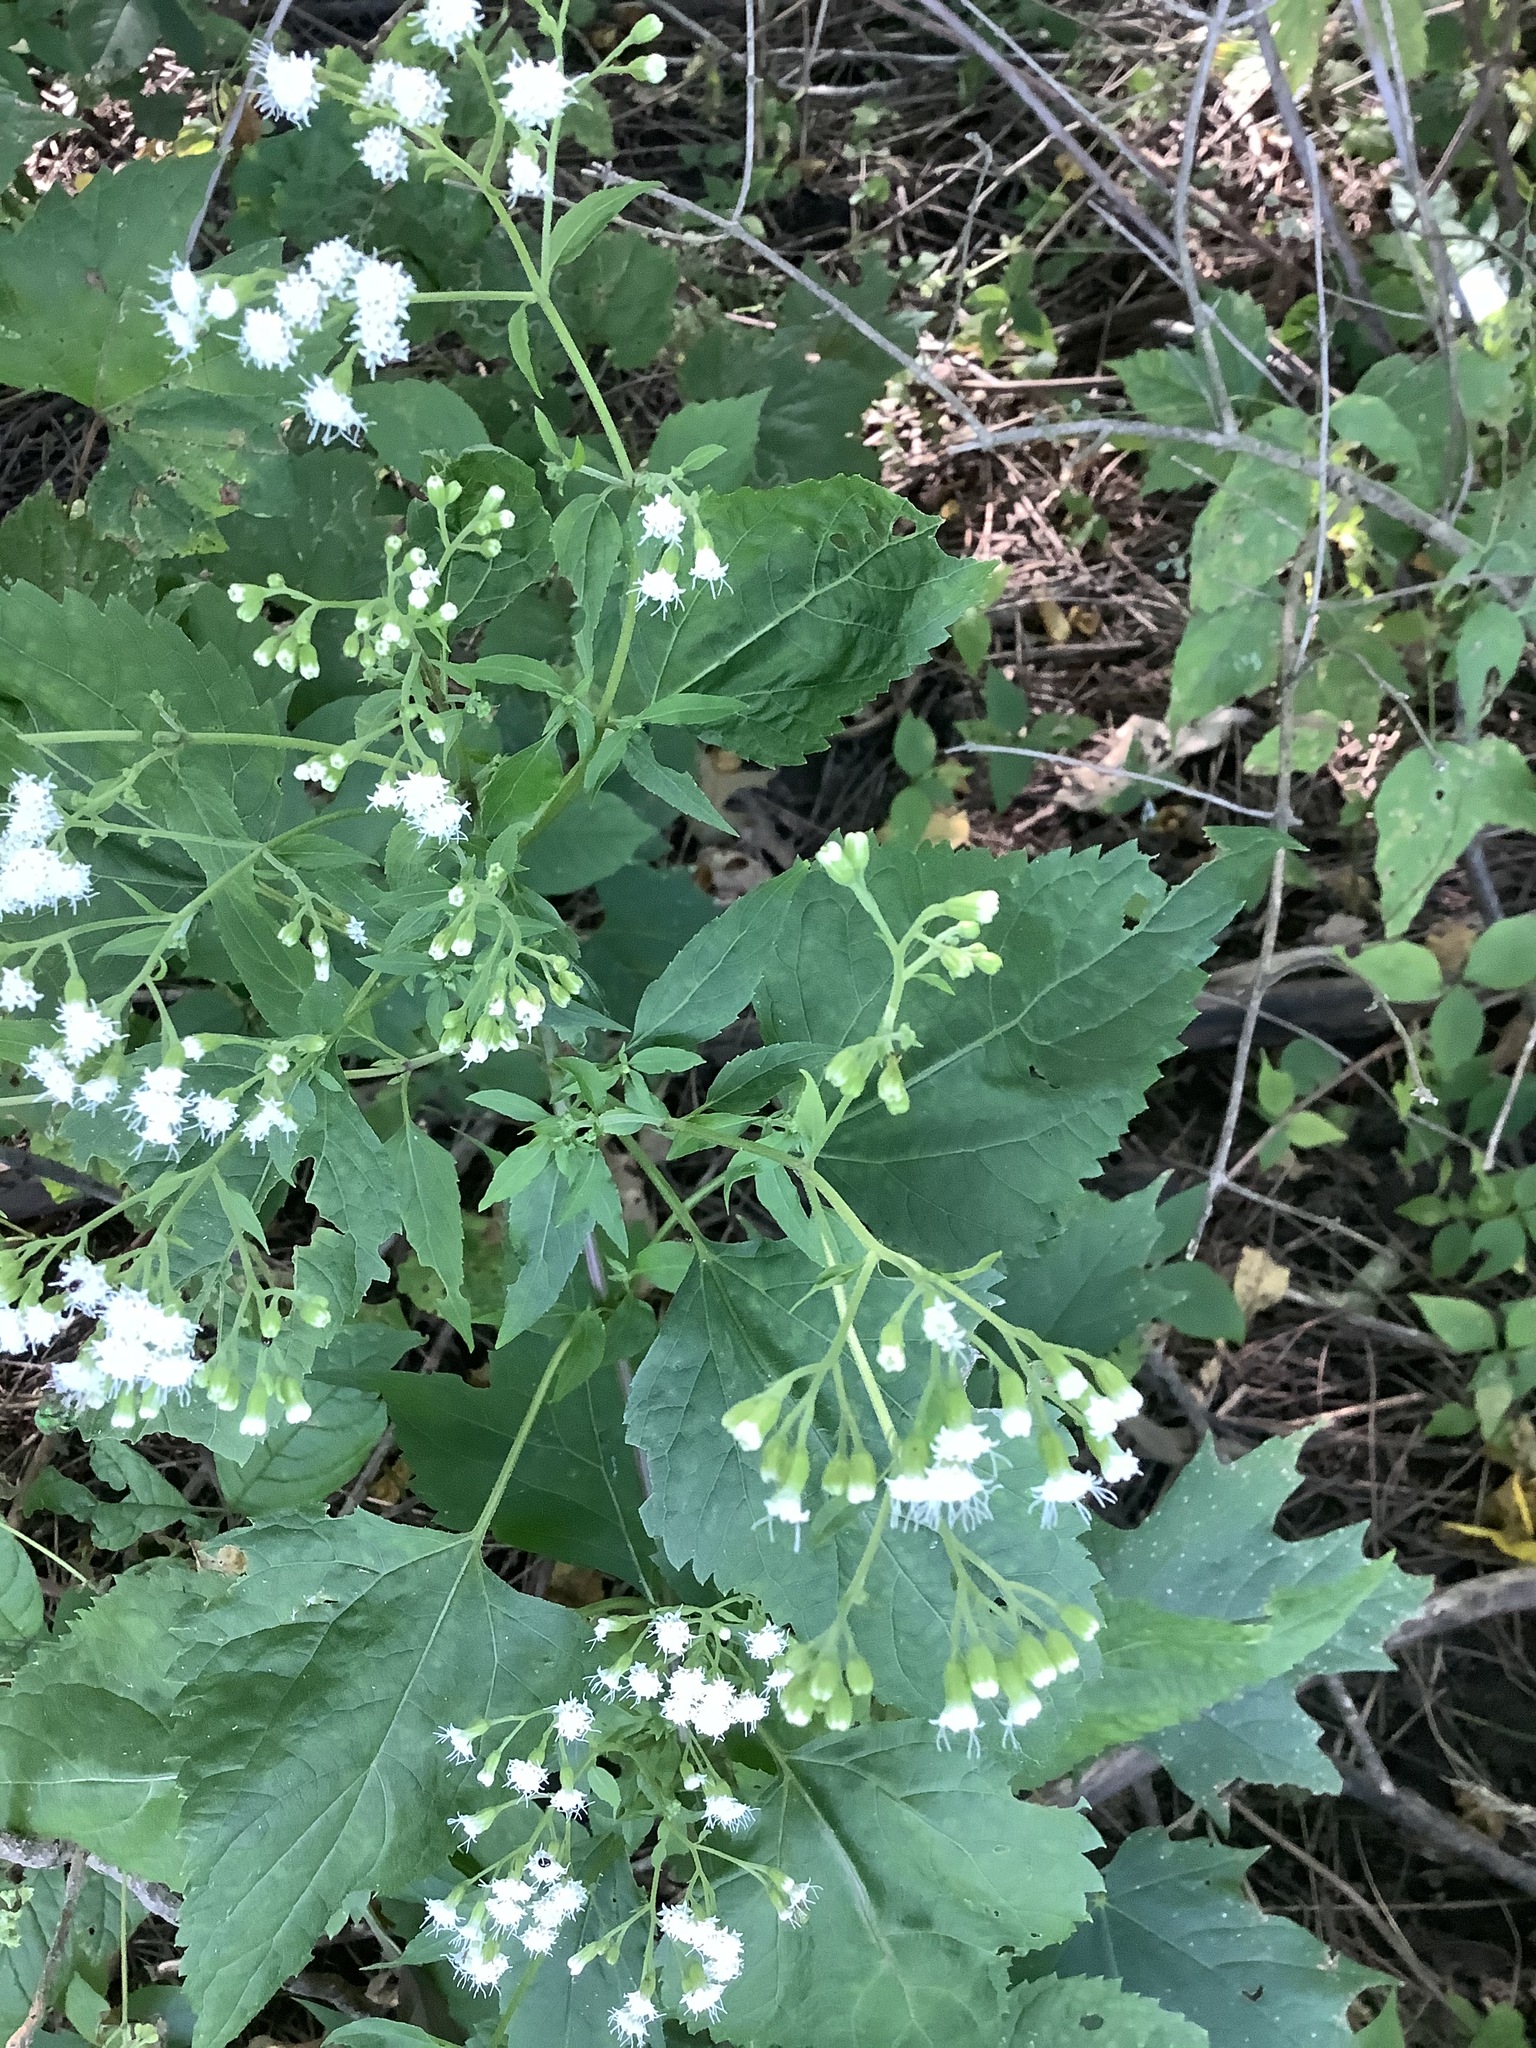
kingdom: Plantae
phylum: Tracheophyta
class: Magnoliopsida
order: Asterales
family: Asteraceae
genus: Ageratina
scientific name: Ageratina altissima
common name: White snakeroot
